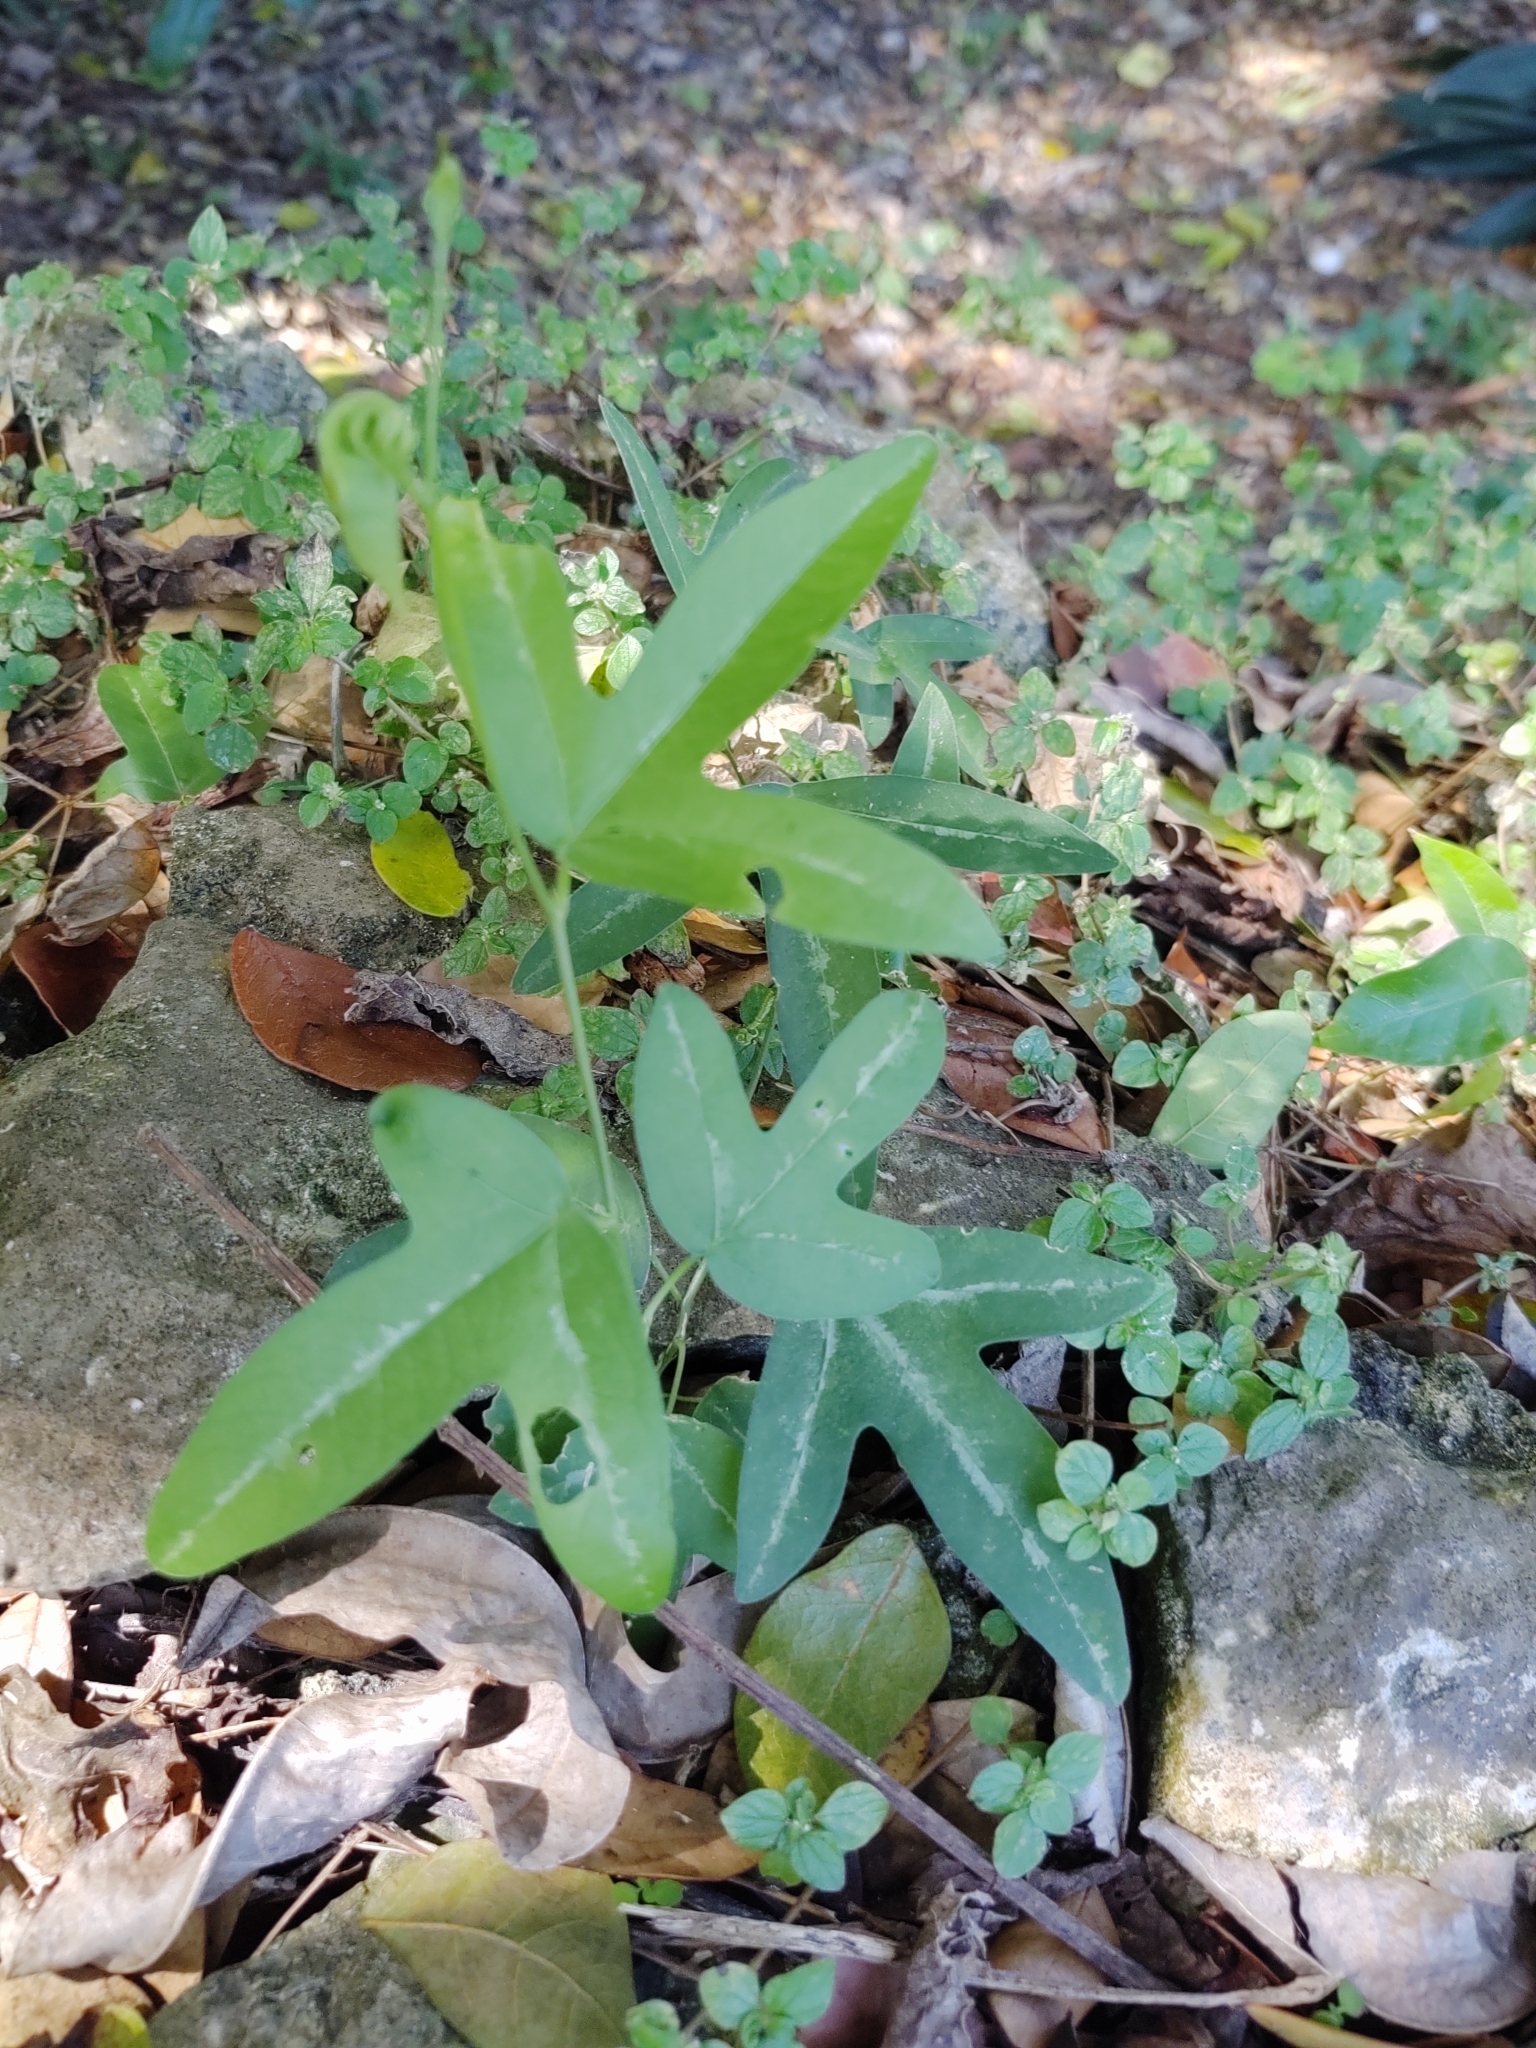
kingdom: Plantae
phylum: Tracheophyta
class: Magnoliopsida
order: Malpighiales
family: Passifloraceae
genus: Passiflora
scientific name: Passiflora suberosa
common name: Wild passionfruit
